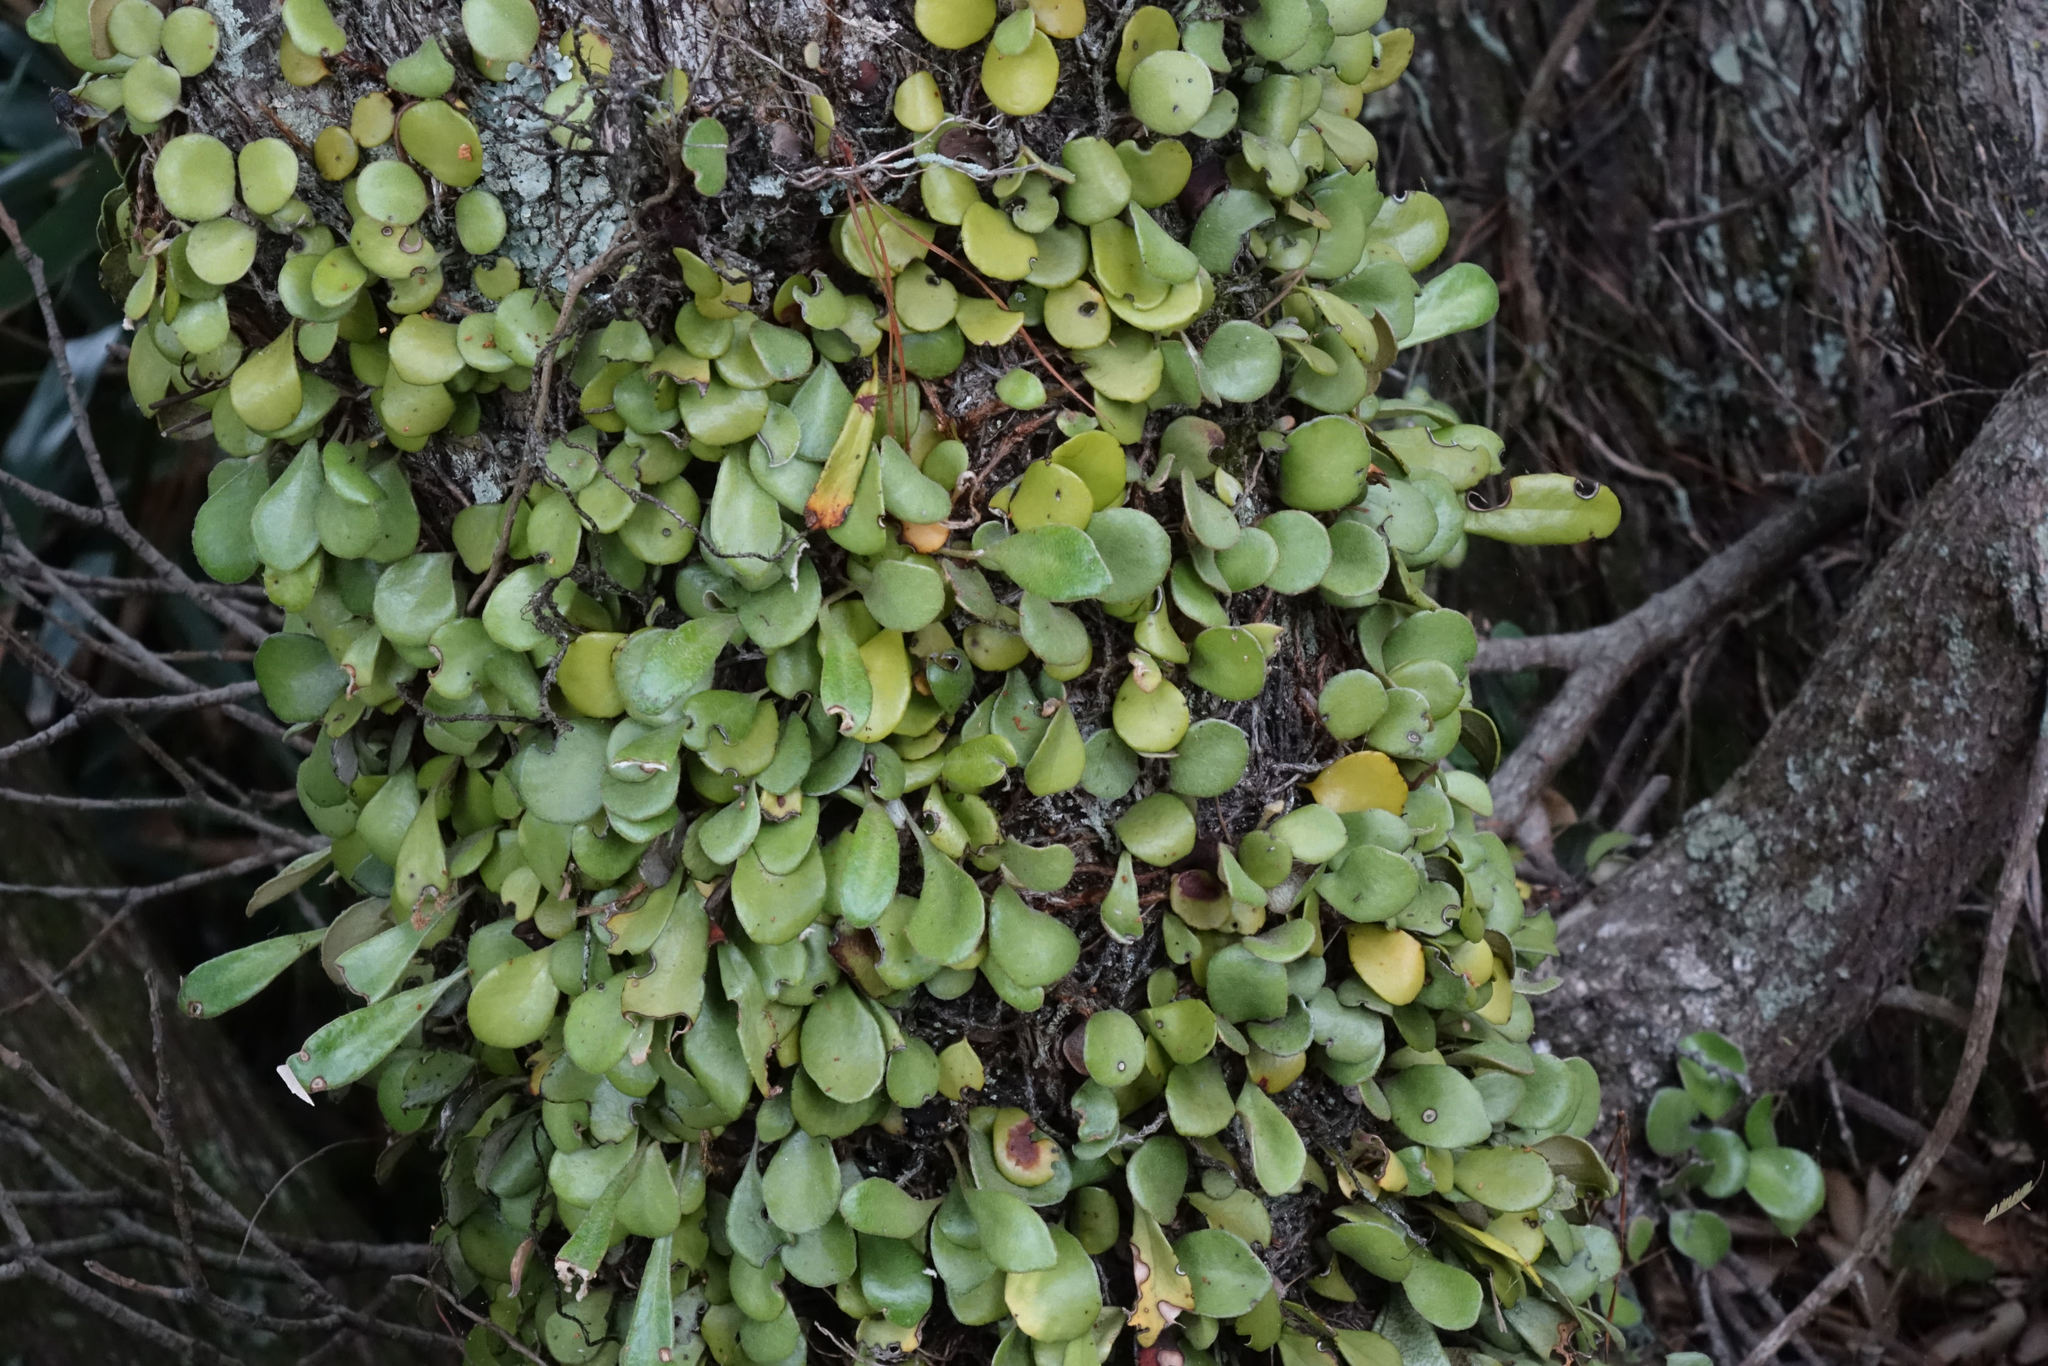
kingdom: Plantae
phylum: Tracheophyta
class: Polypodiopsida
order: Polypodiales
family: Polypodiaceae
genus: Pyrrosia
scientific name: Pyrrosia eleagnifolia
